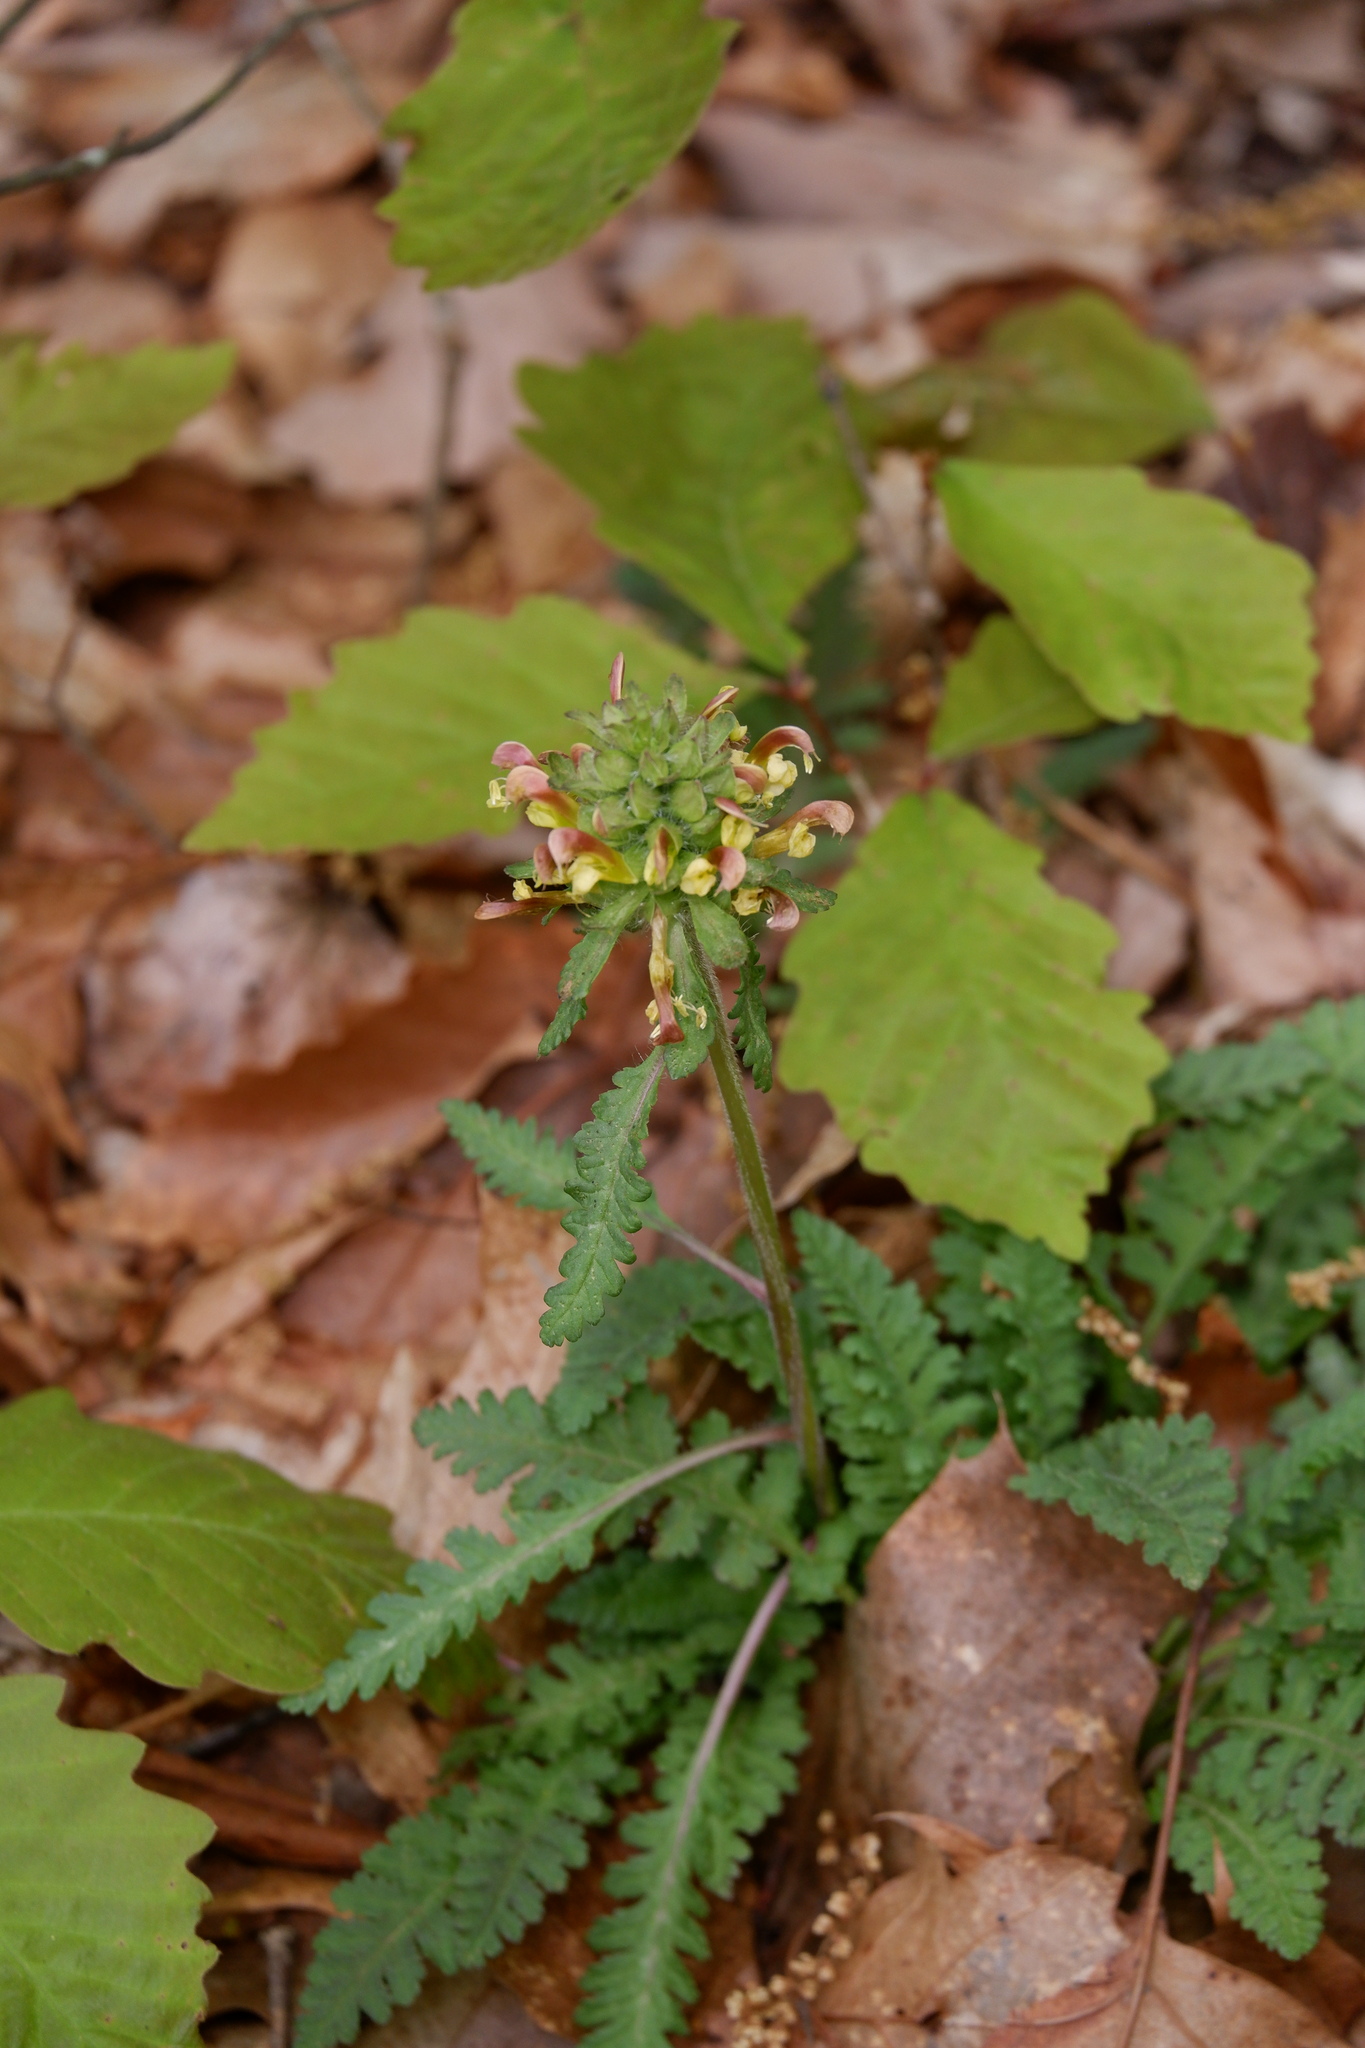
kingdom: Plantae
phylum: Tracheophyta
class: Magnoliopsida
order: Lamiales
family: Orobanchaceae
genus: Pedicularis
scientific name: Pedicularis canadensis
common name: Early lousewort
